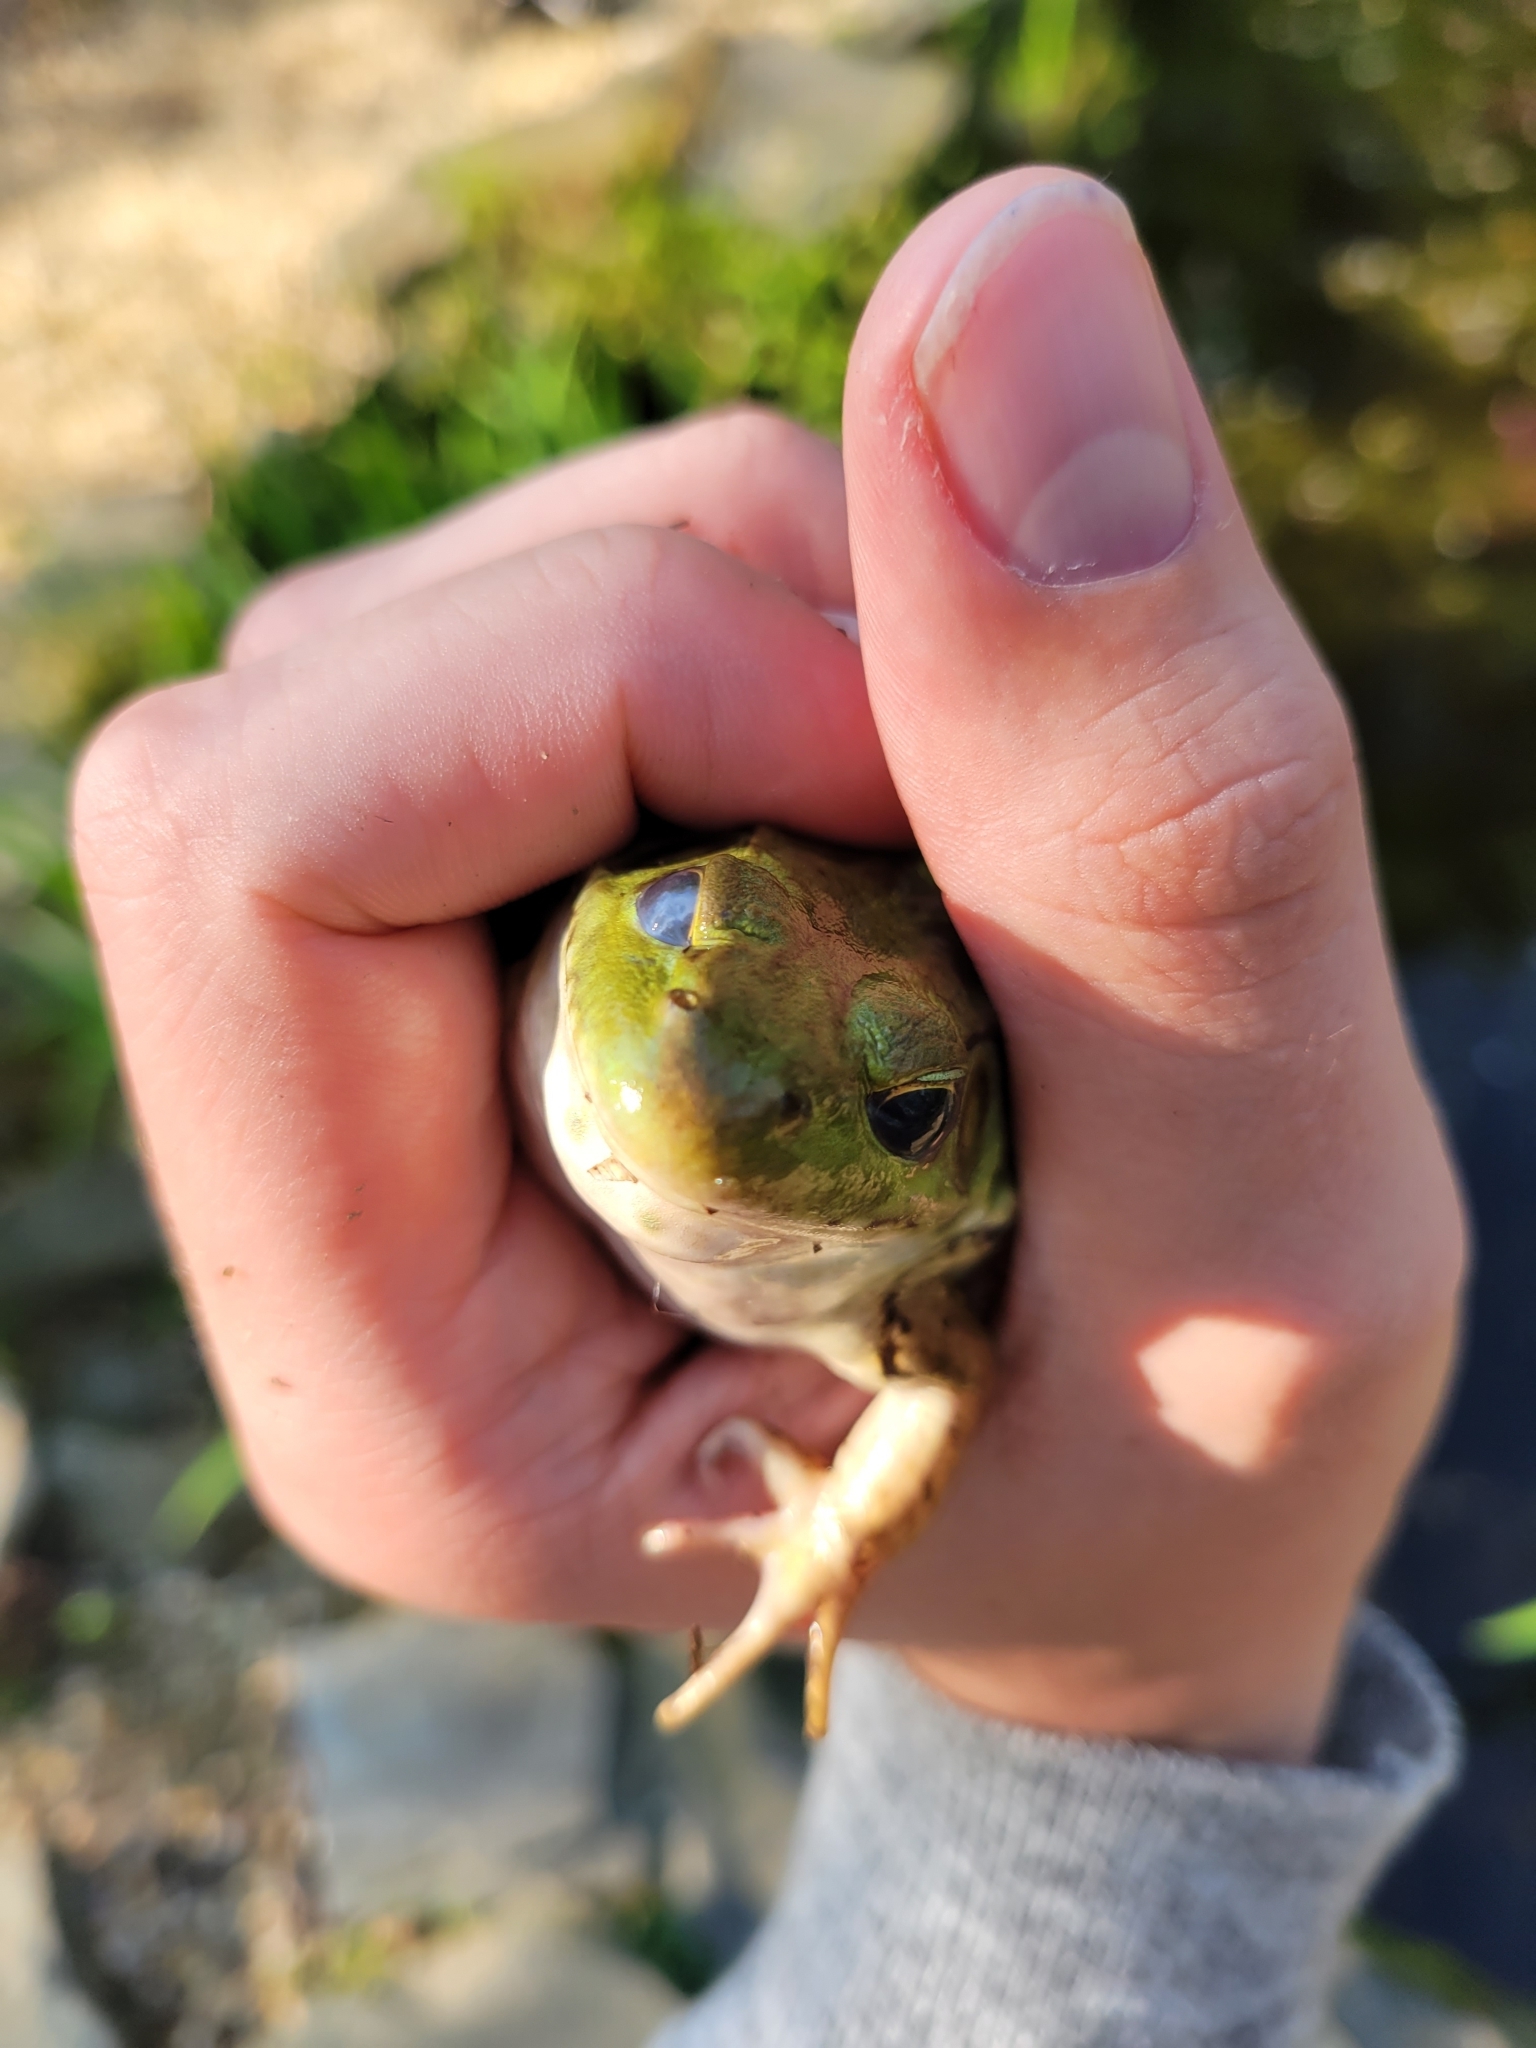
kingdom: Animalia
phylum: Chordata
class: Amphibia
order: Anura
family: Ranidae
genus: Lithobates
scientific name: Lithobates catesbeianus
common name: American bullfrog
